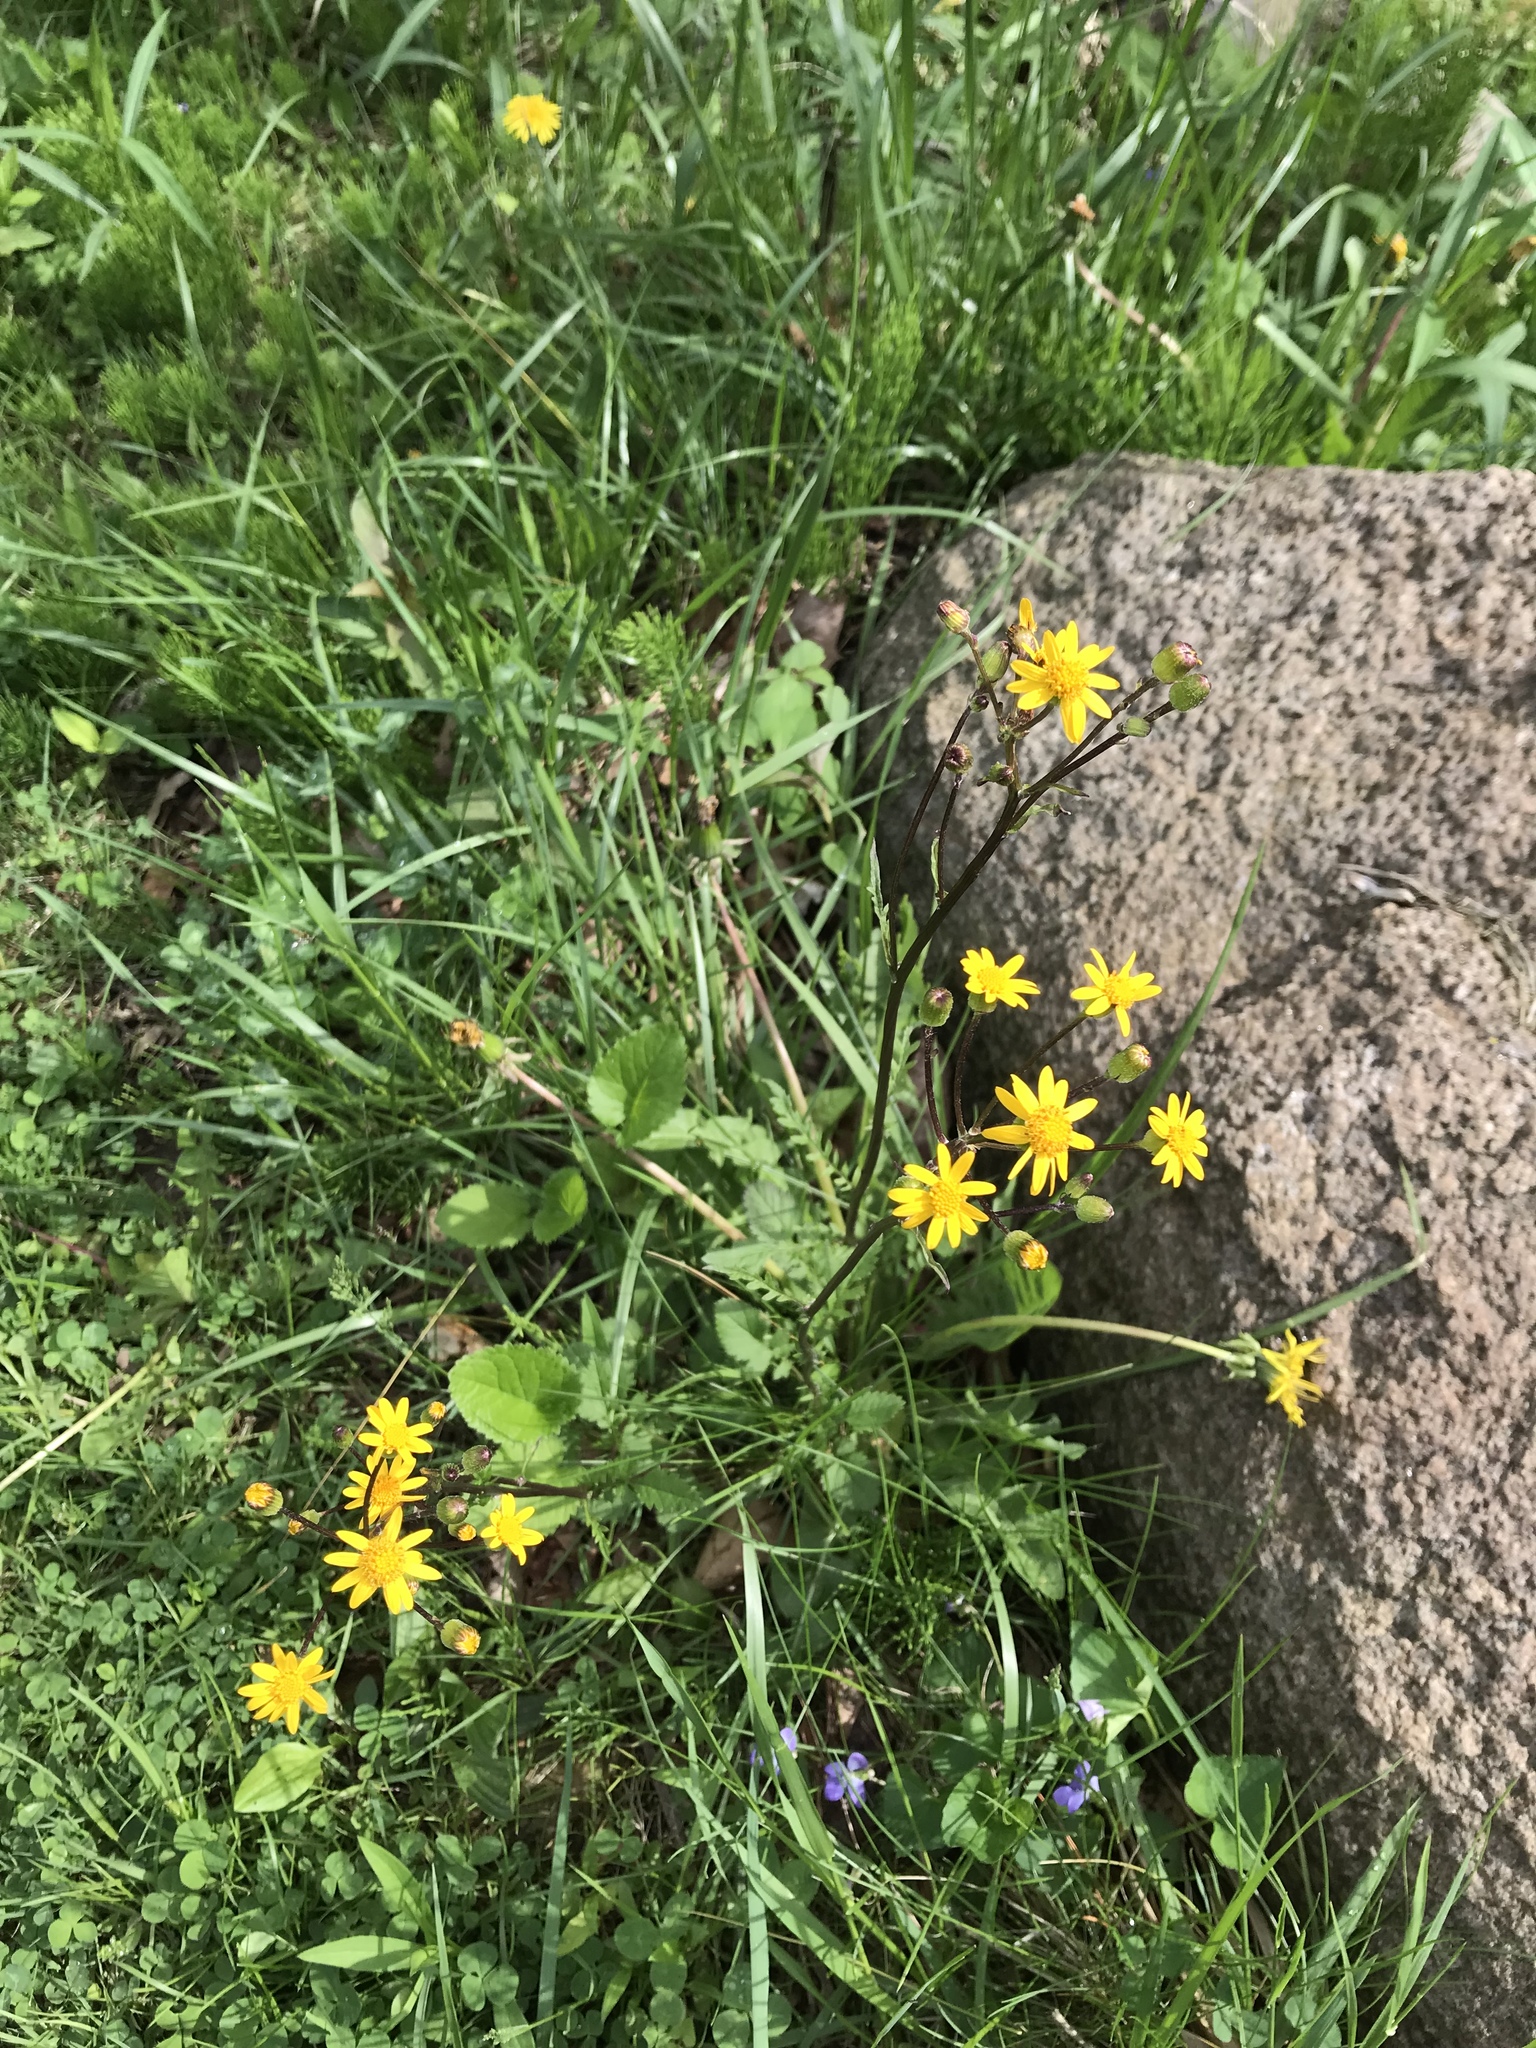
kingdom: Plantae
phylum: Tracheophyta
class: Magnoliopsida
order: Asterales
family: Asteraceae
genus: Packera
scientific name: Packera aurea
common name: Golden groundsel
